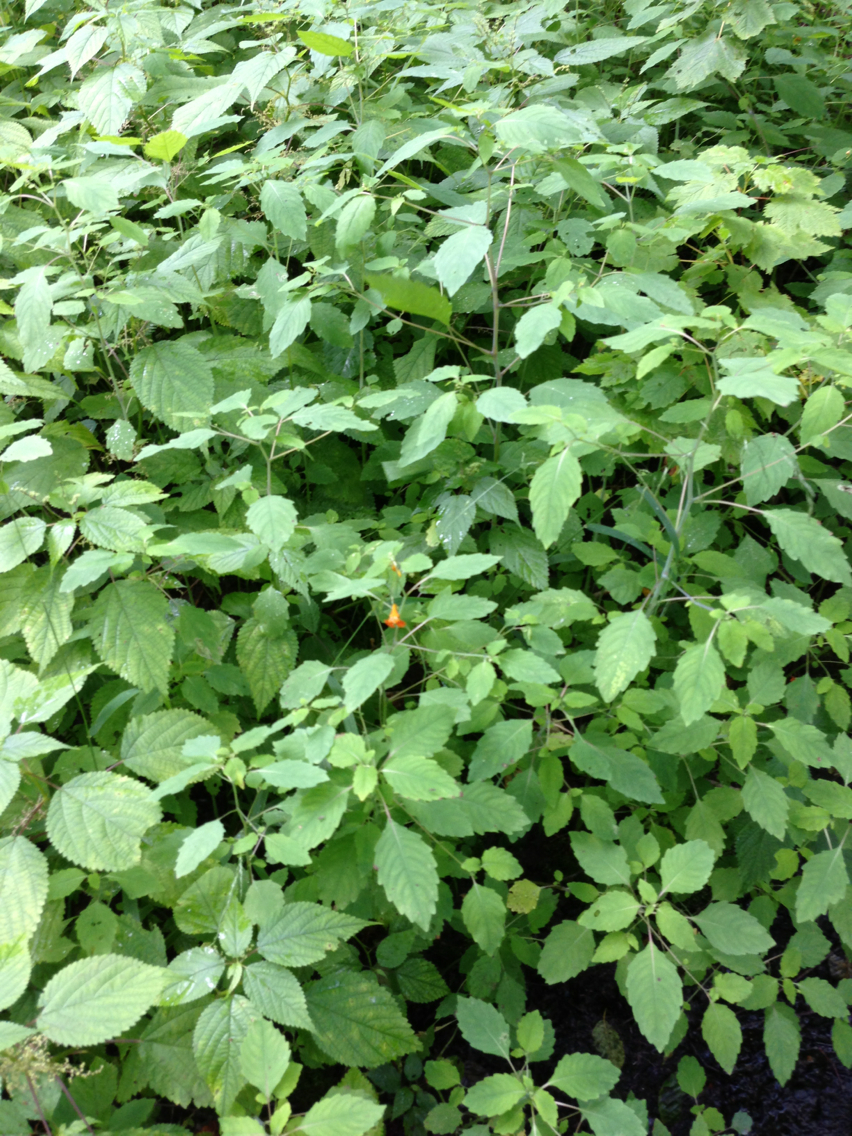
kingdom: Plantae
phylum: Tracheophyta
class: Magnoliopsida
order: Ericales
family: Balsaminaceae
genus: Impatiens
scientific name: Impatiens capensis
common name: Orange balsam
